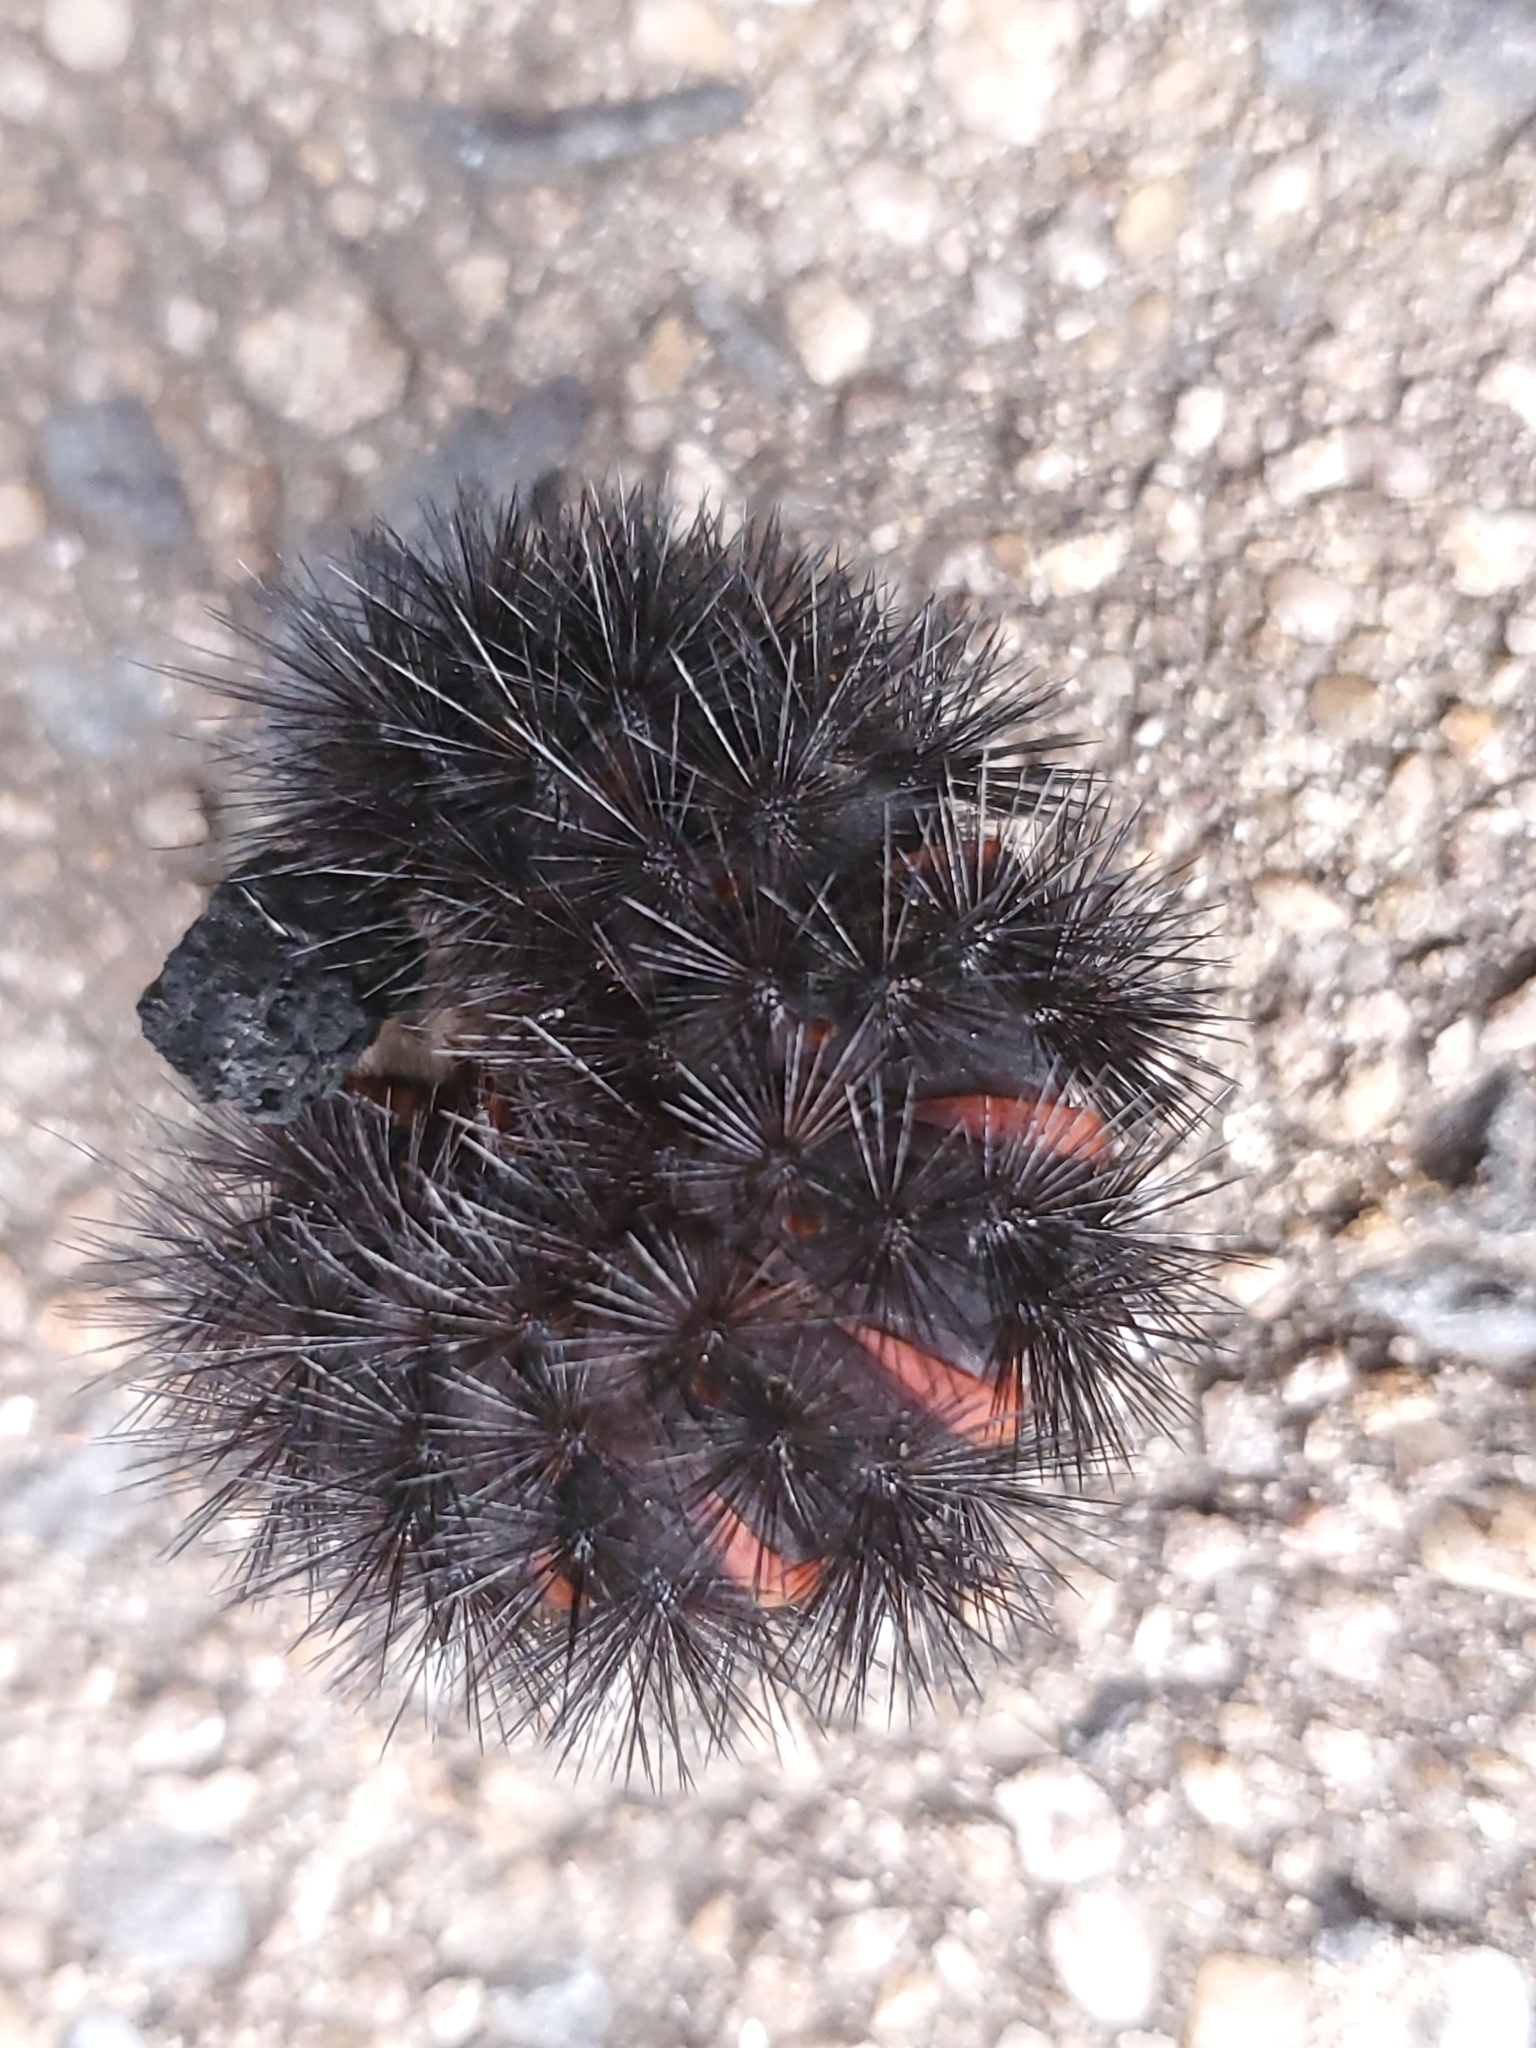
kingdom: Animalia
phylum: Arthropoda
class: Insecta
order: Lepidoptera
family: Erebidae
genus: Hypercompe
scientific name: Hypercompe scribonia
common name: Giant leopard moth
